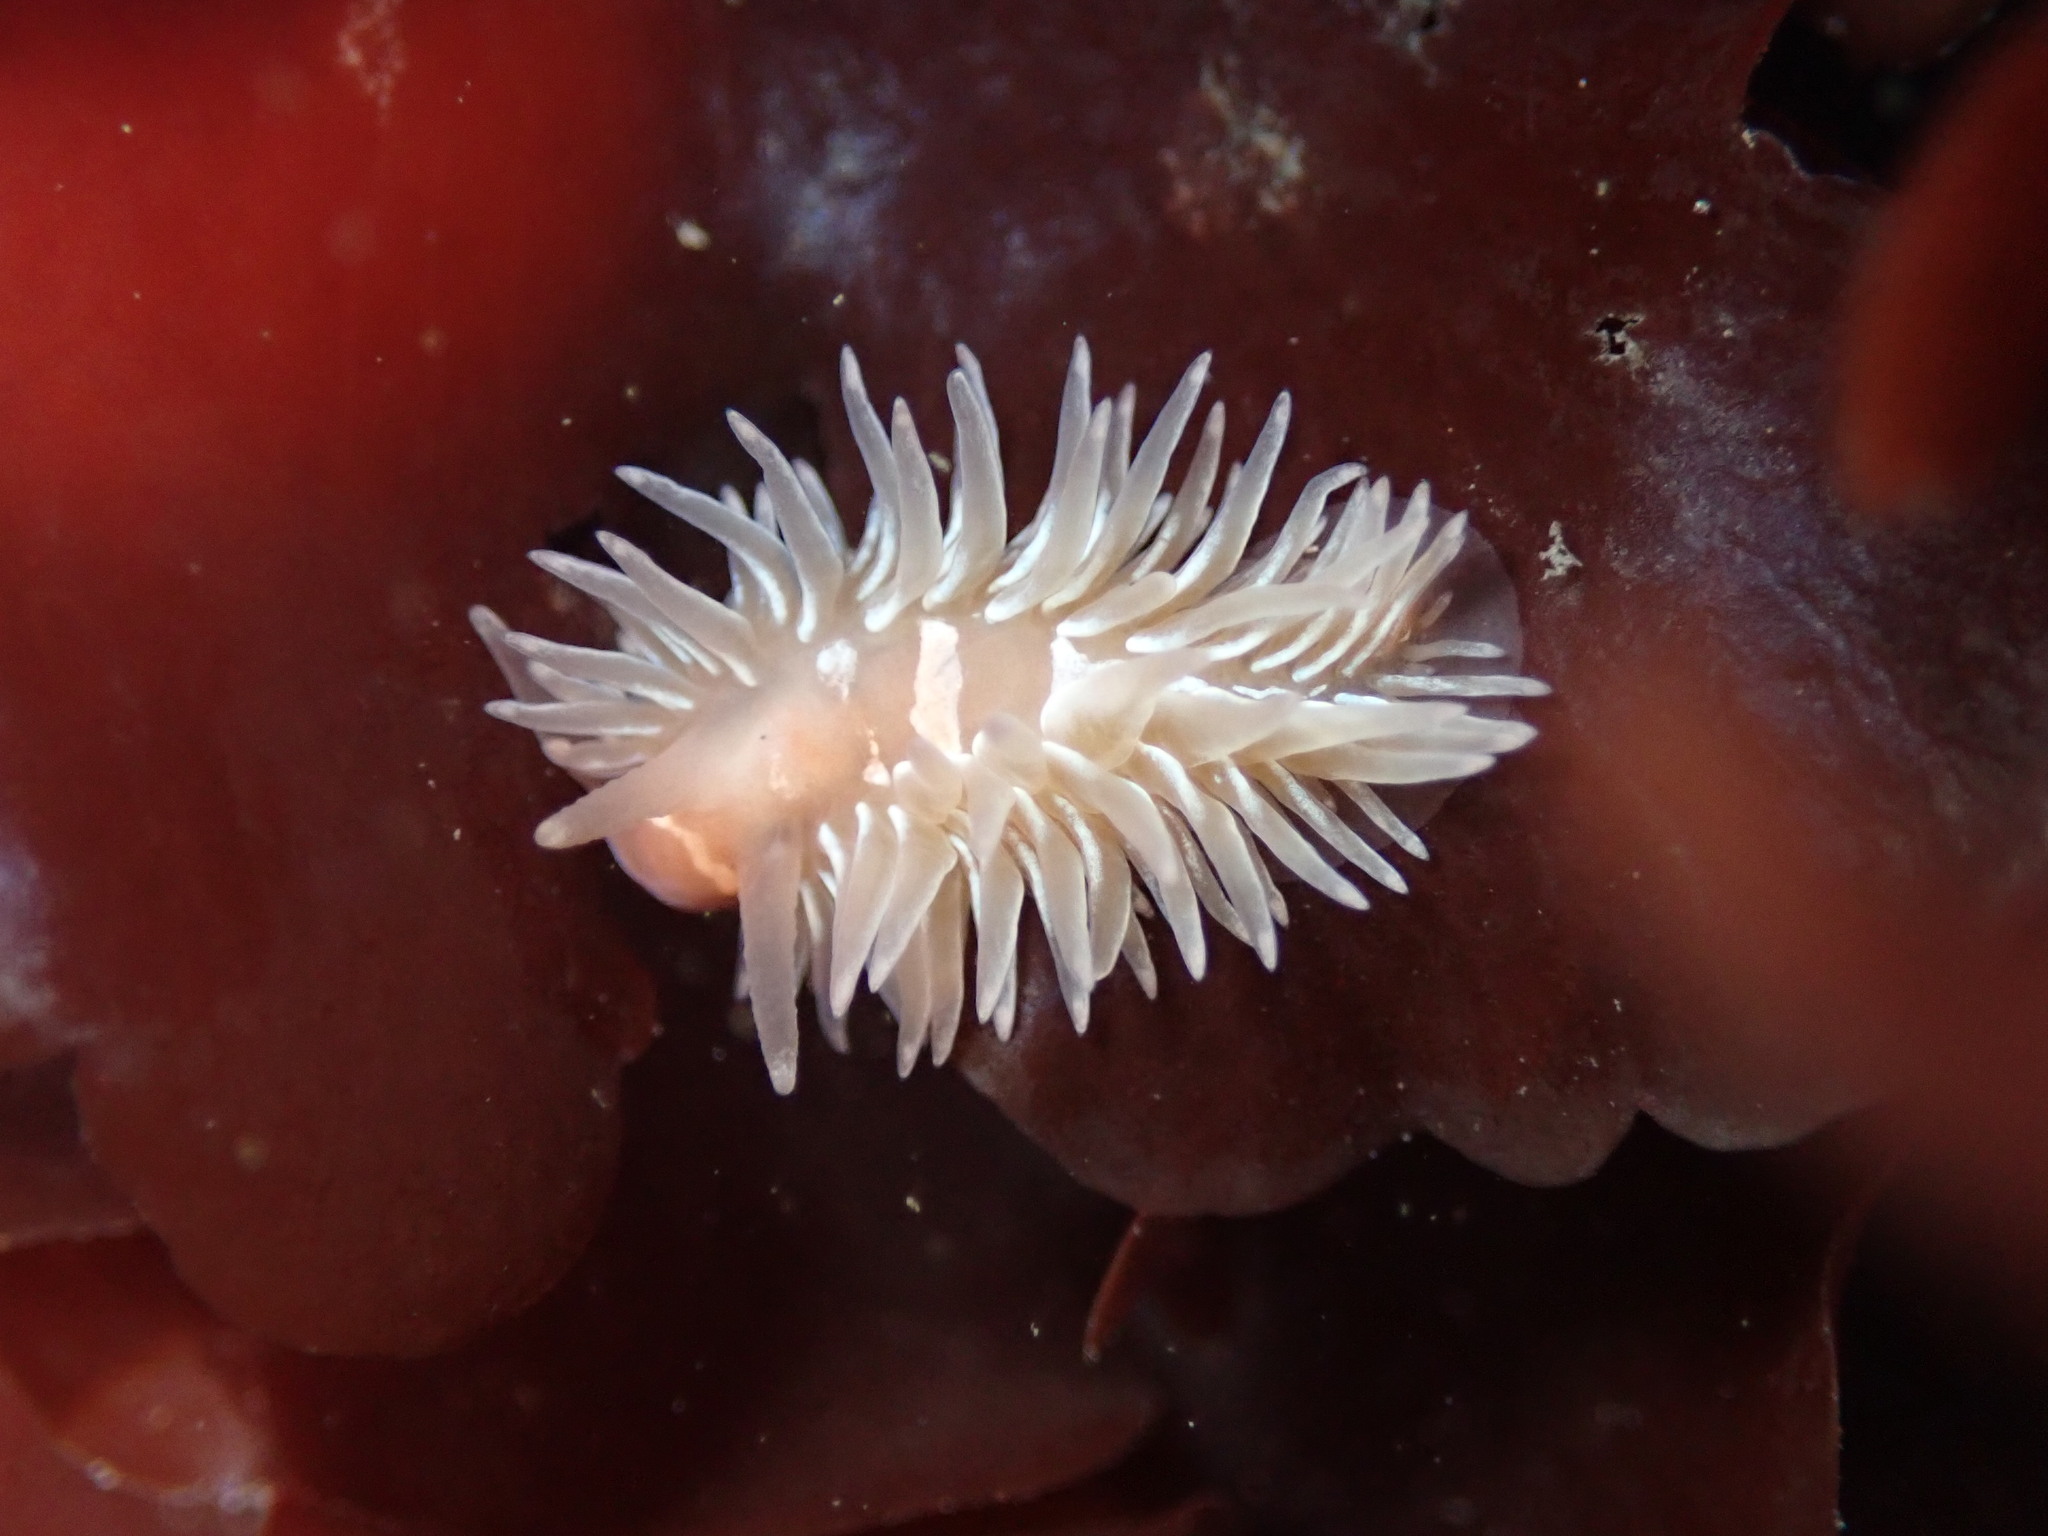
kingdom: Animalia
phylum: Mollusca
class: Gastropoda
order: Nudibranchia
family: Aeolidiidae
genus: Aeolidia
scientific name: Aeolidia loui
